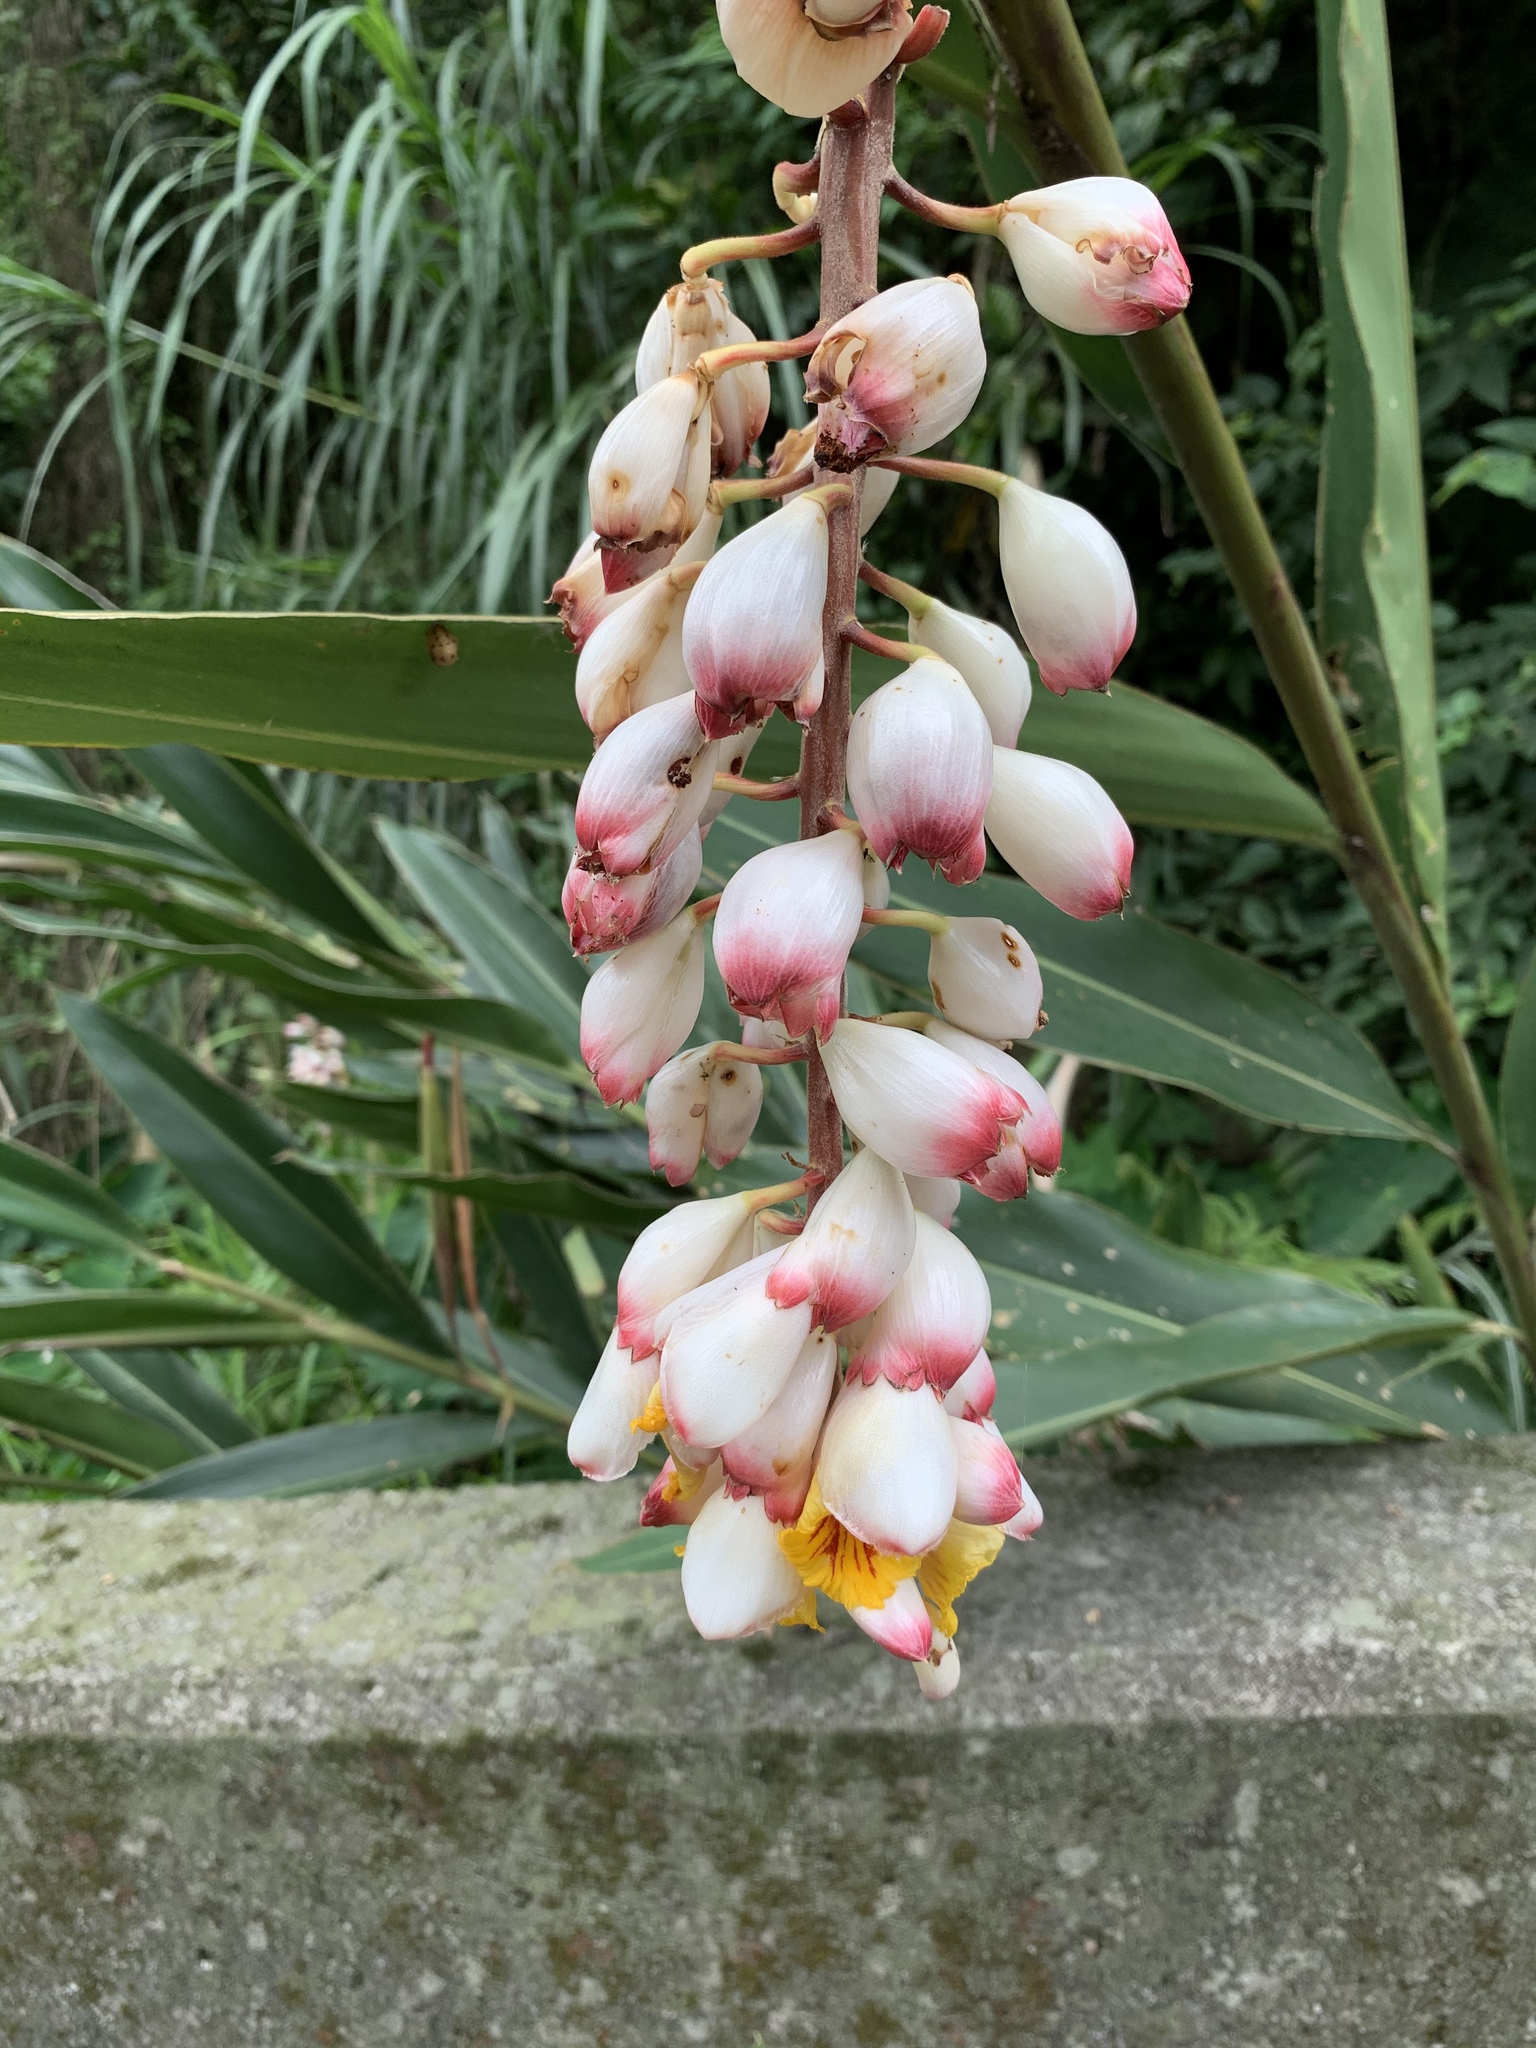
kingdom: Plantae
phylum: Tracheophyta
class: Liliopsida
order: Zingiberales
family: Zingiberaceae
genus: Alpinia
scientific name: Alpinia zerumbet
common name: Shellplant
